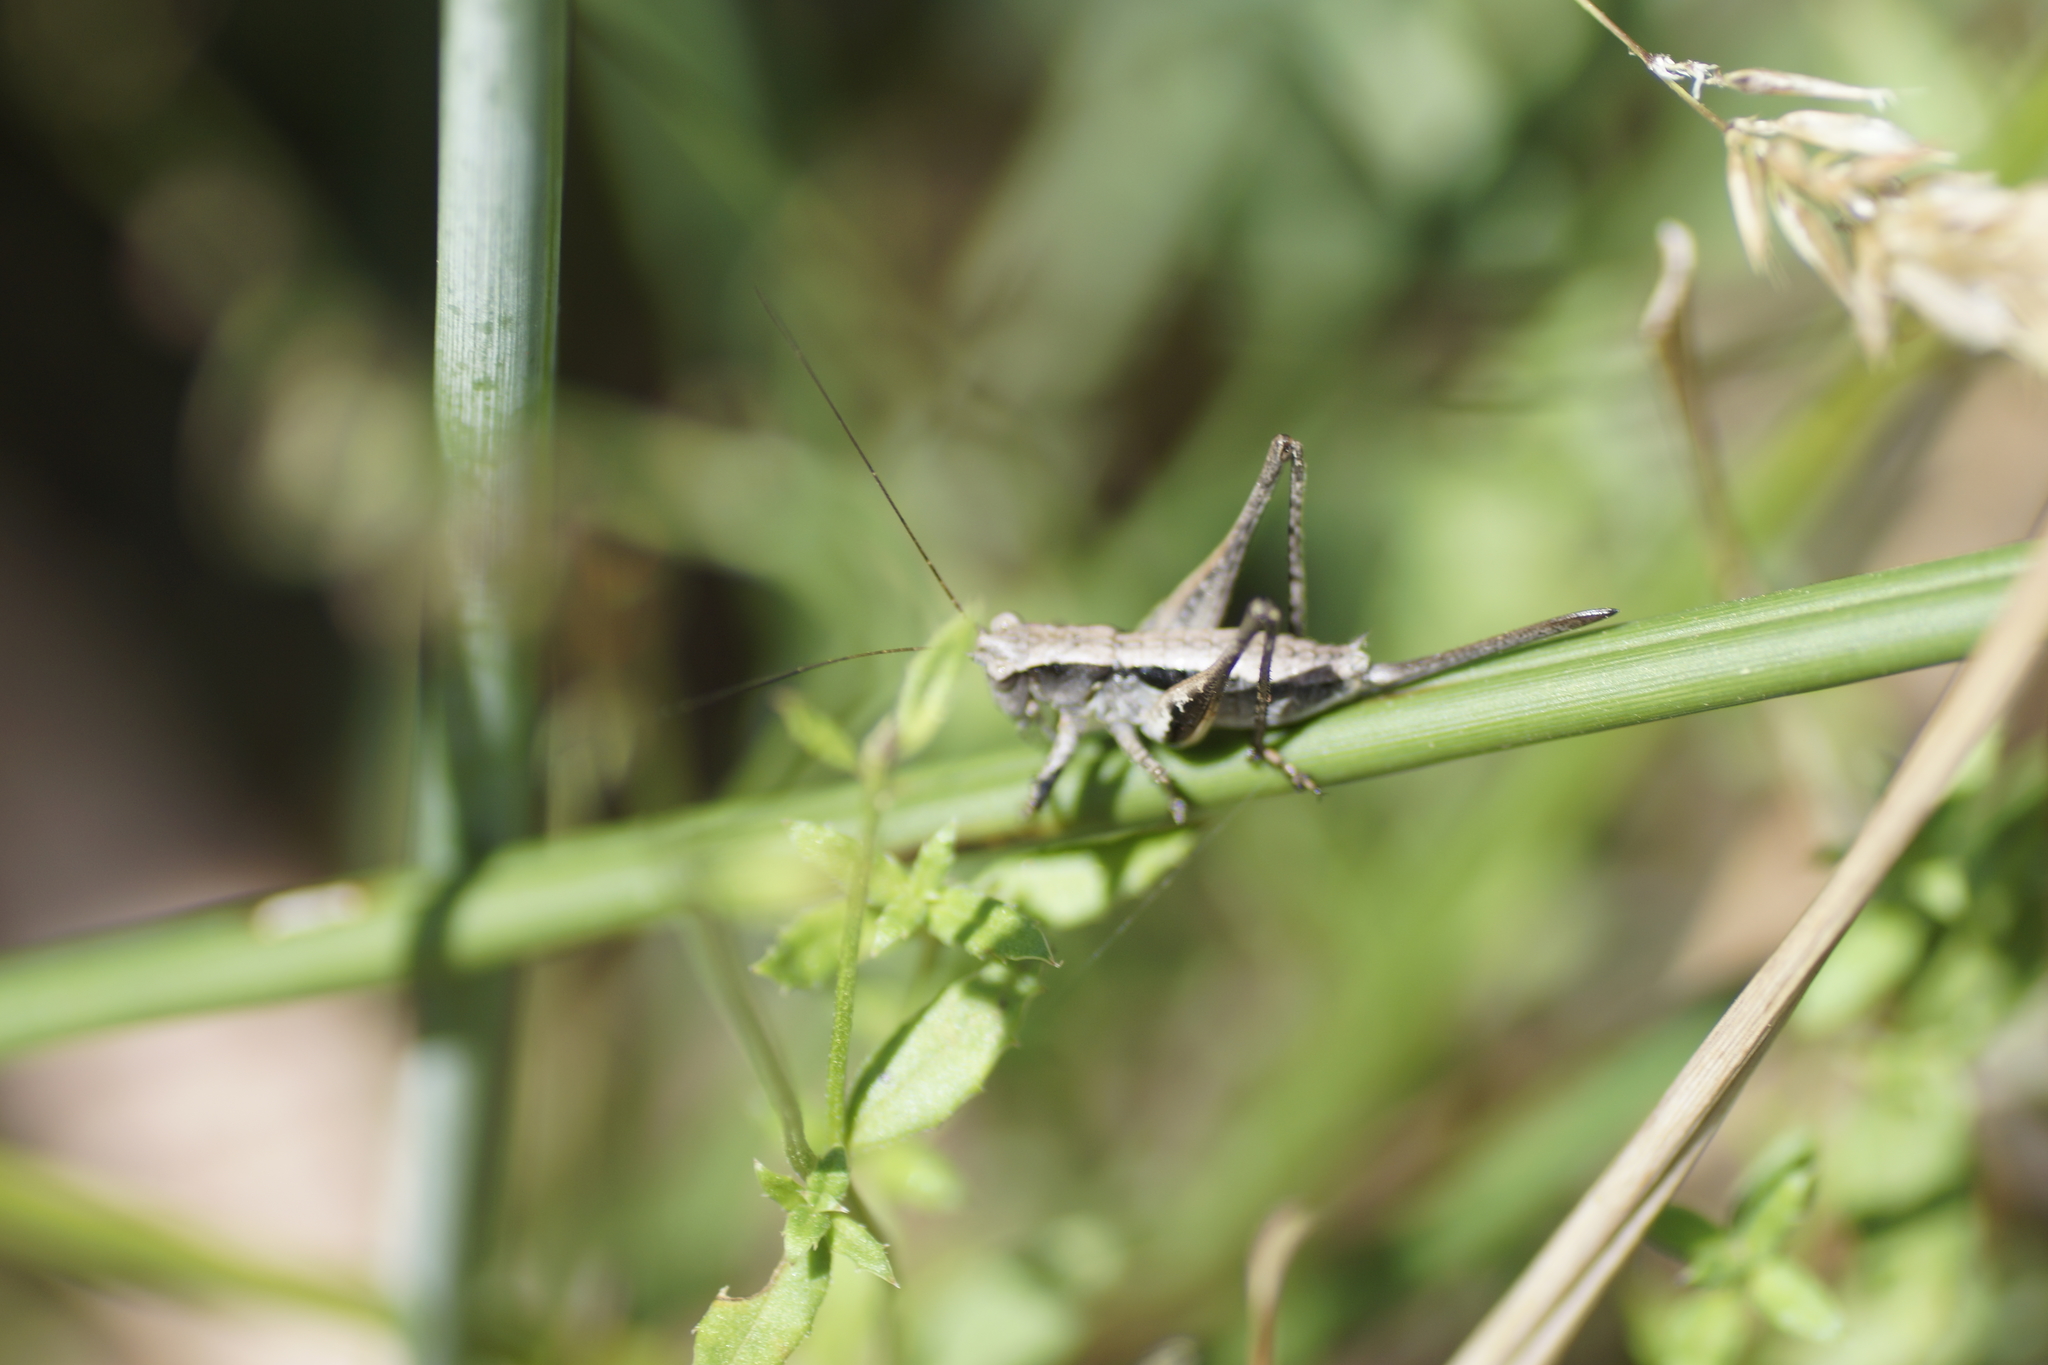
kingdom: Animalia
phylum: Arthropoda
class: Insecta
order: Orthoptera
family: Tettigoniidae
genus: Nanodectes
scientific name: Nanodectes harpax
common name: Small shield-back
